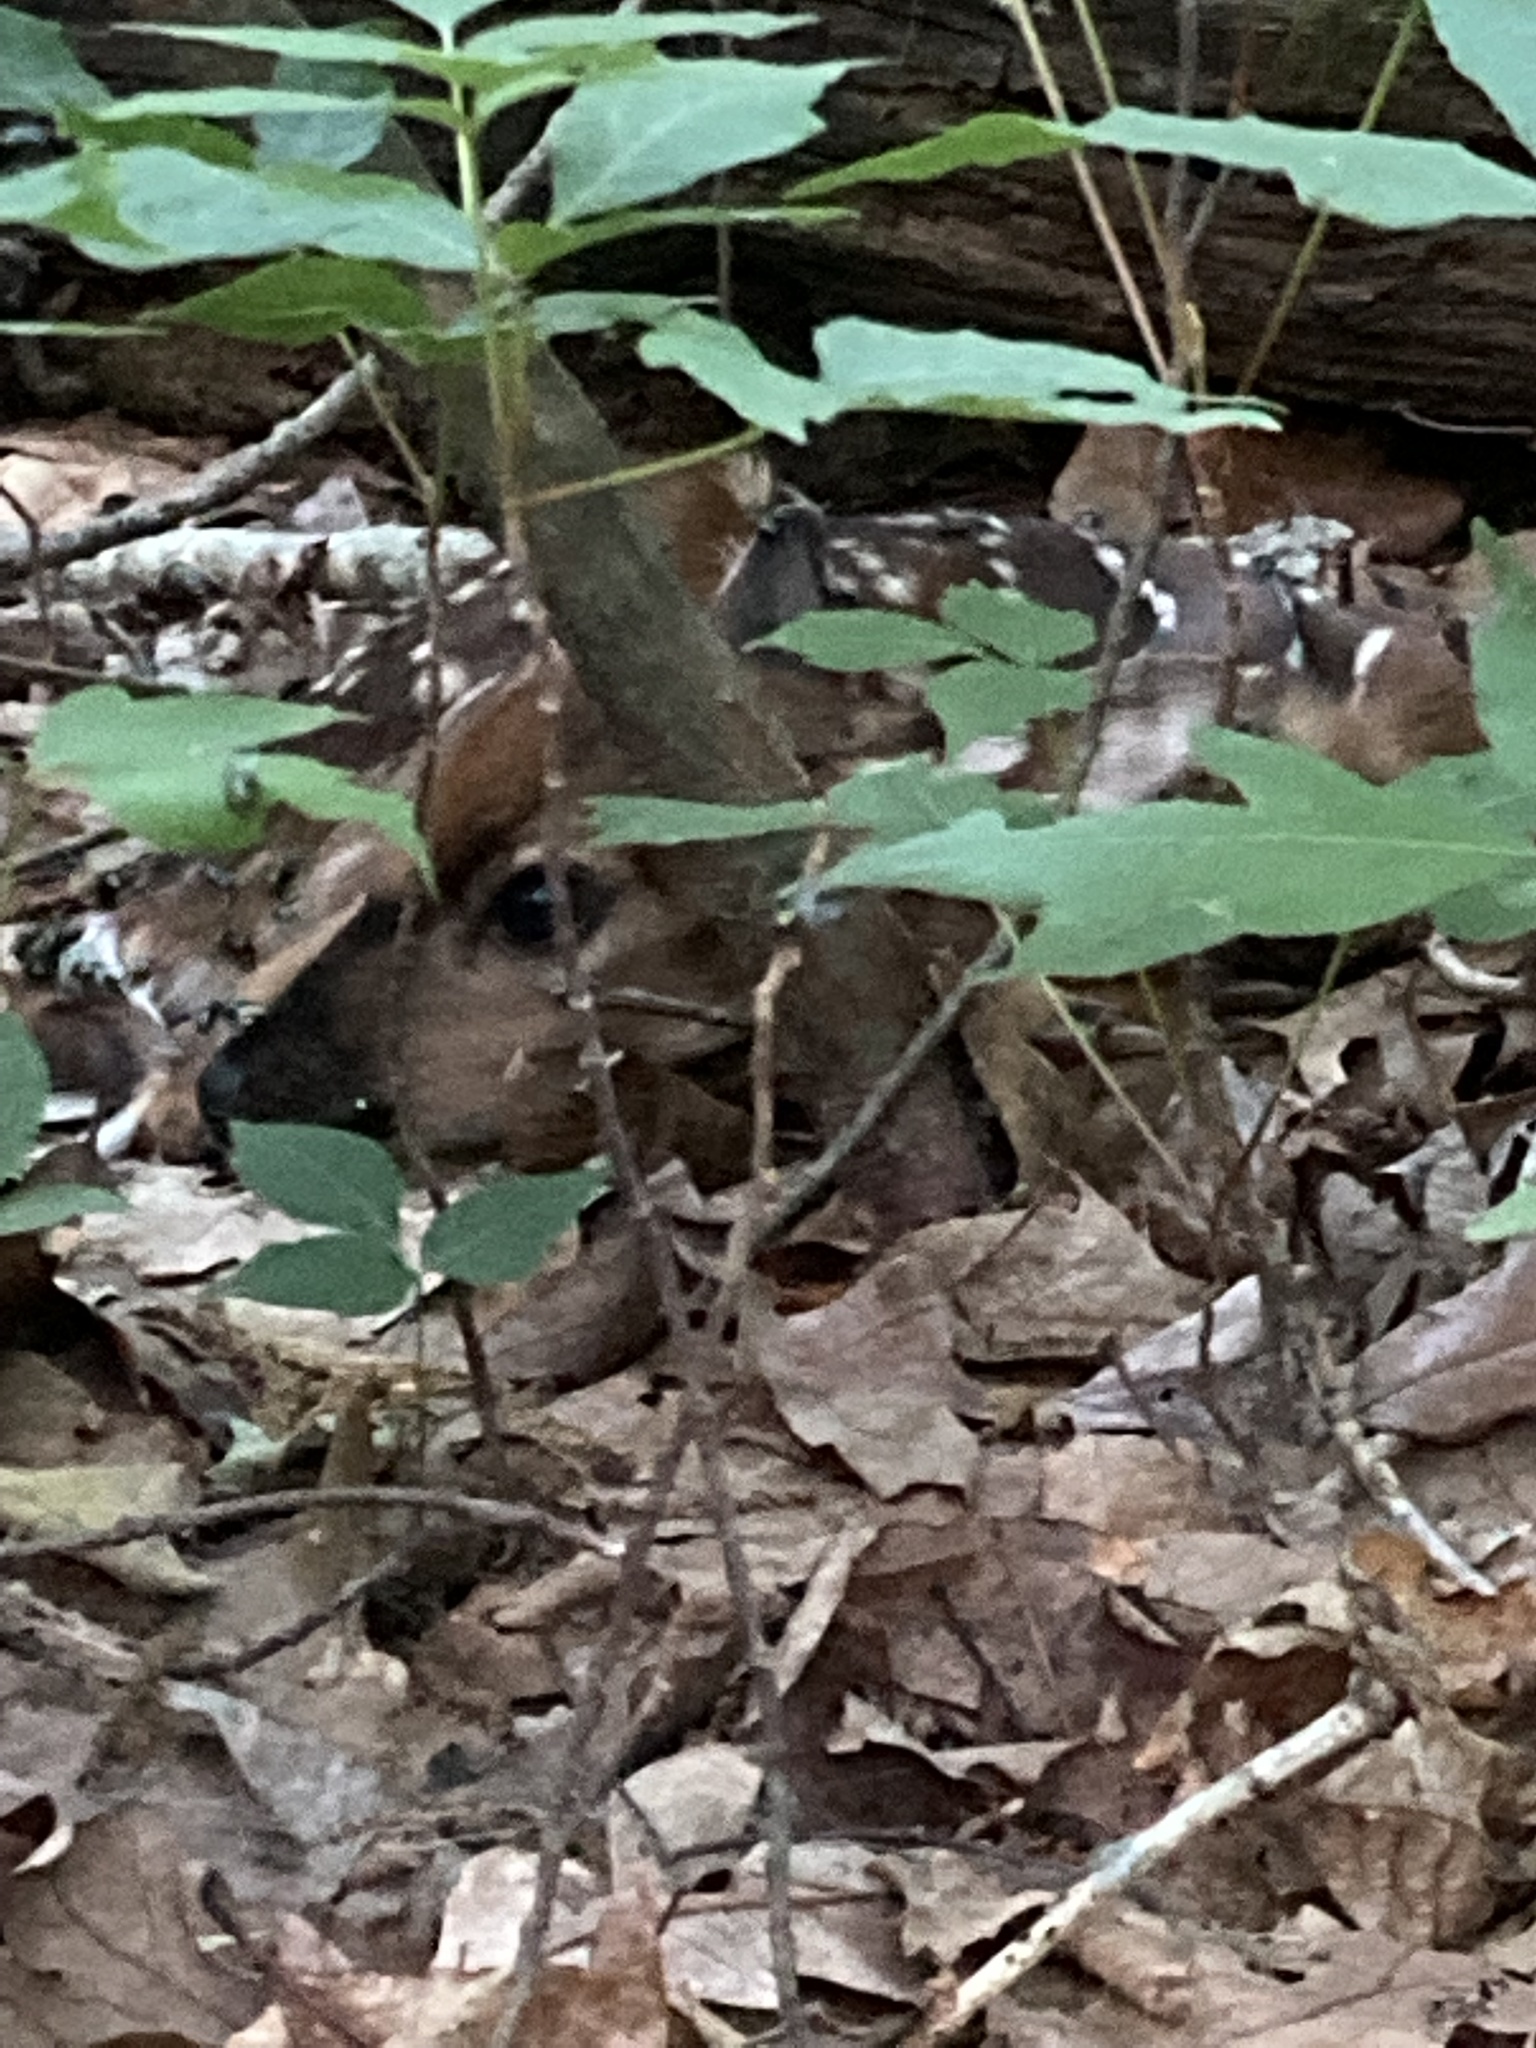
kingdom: Animalia
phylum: Chordata
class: Mammalia
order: Artiodactyla
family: Cervidae
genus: Odocoileus
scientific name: Odocoileus virginianus
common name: White-tailed deer
